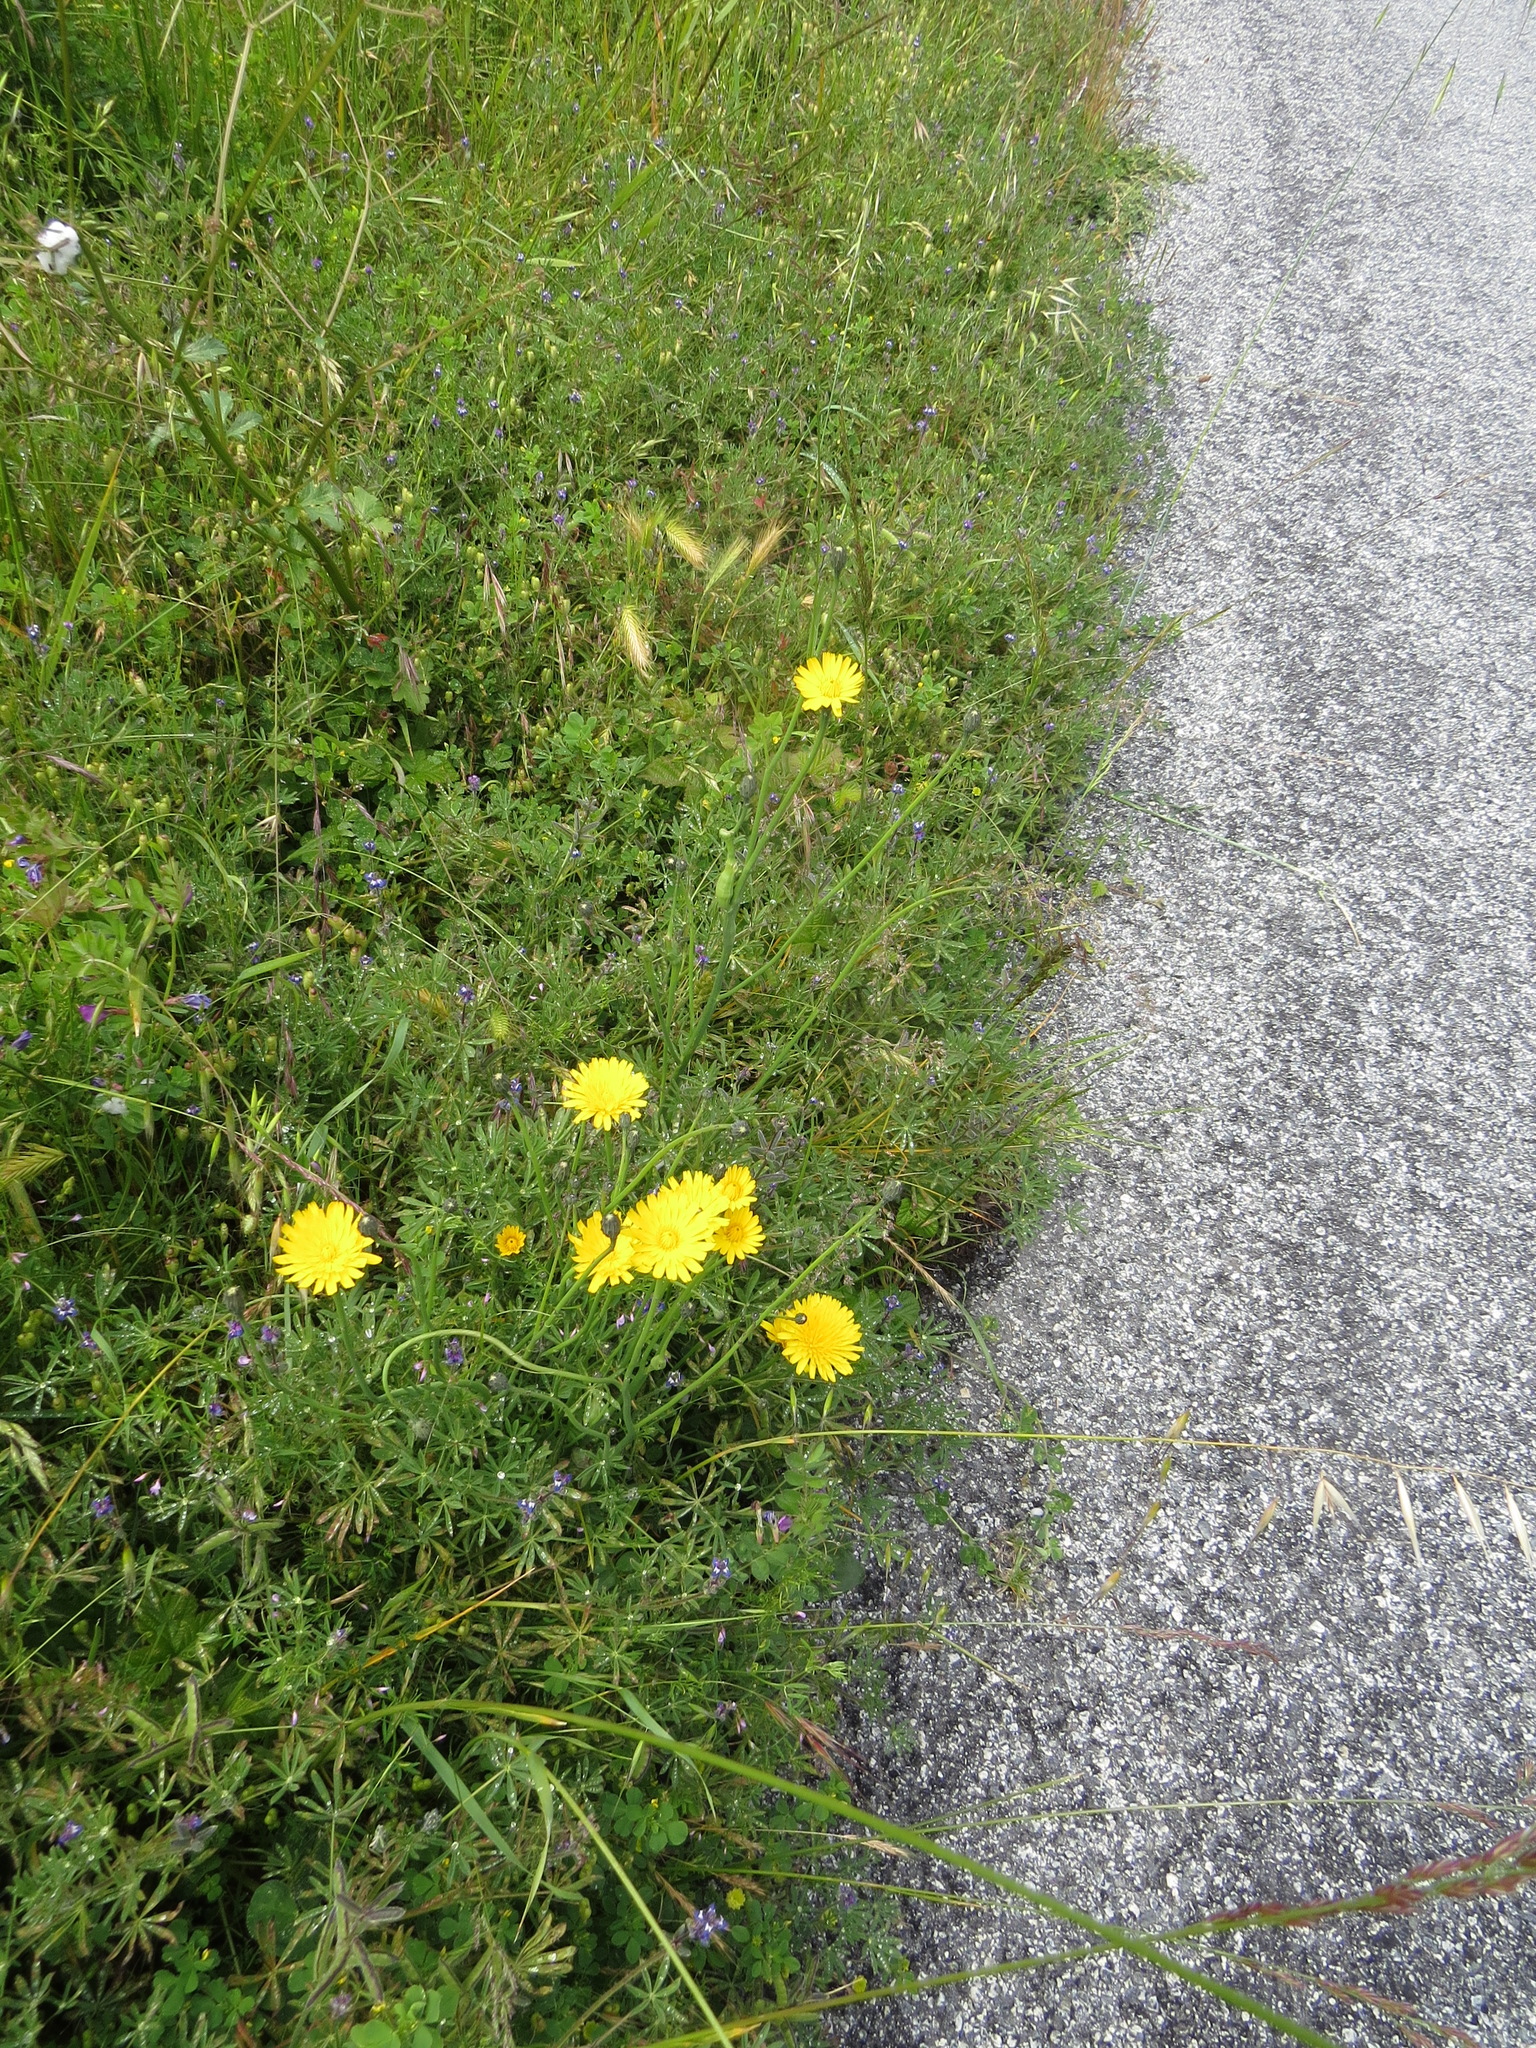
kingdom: Animalia
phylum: Arthropoda
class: Insecta
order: Hymenoptera
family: Cynipidae
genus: Phanacis
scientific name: Phanacis hypochoeridis
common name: Gall wasp
